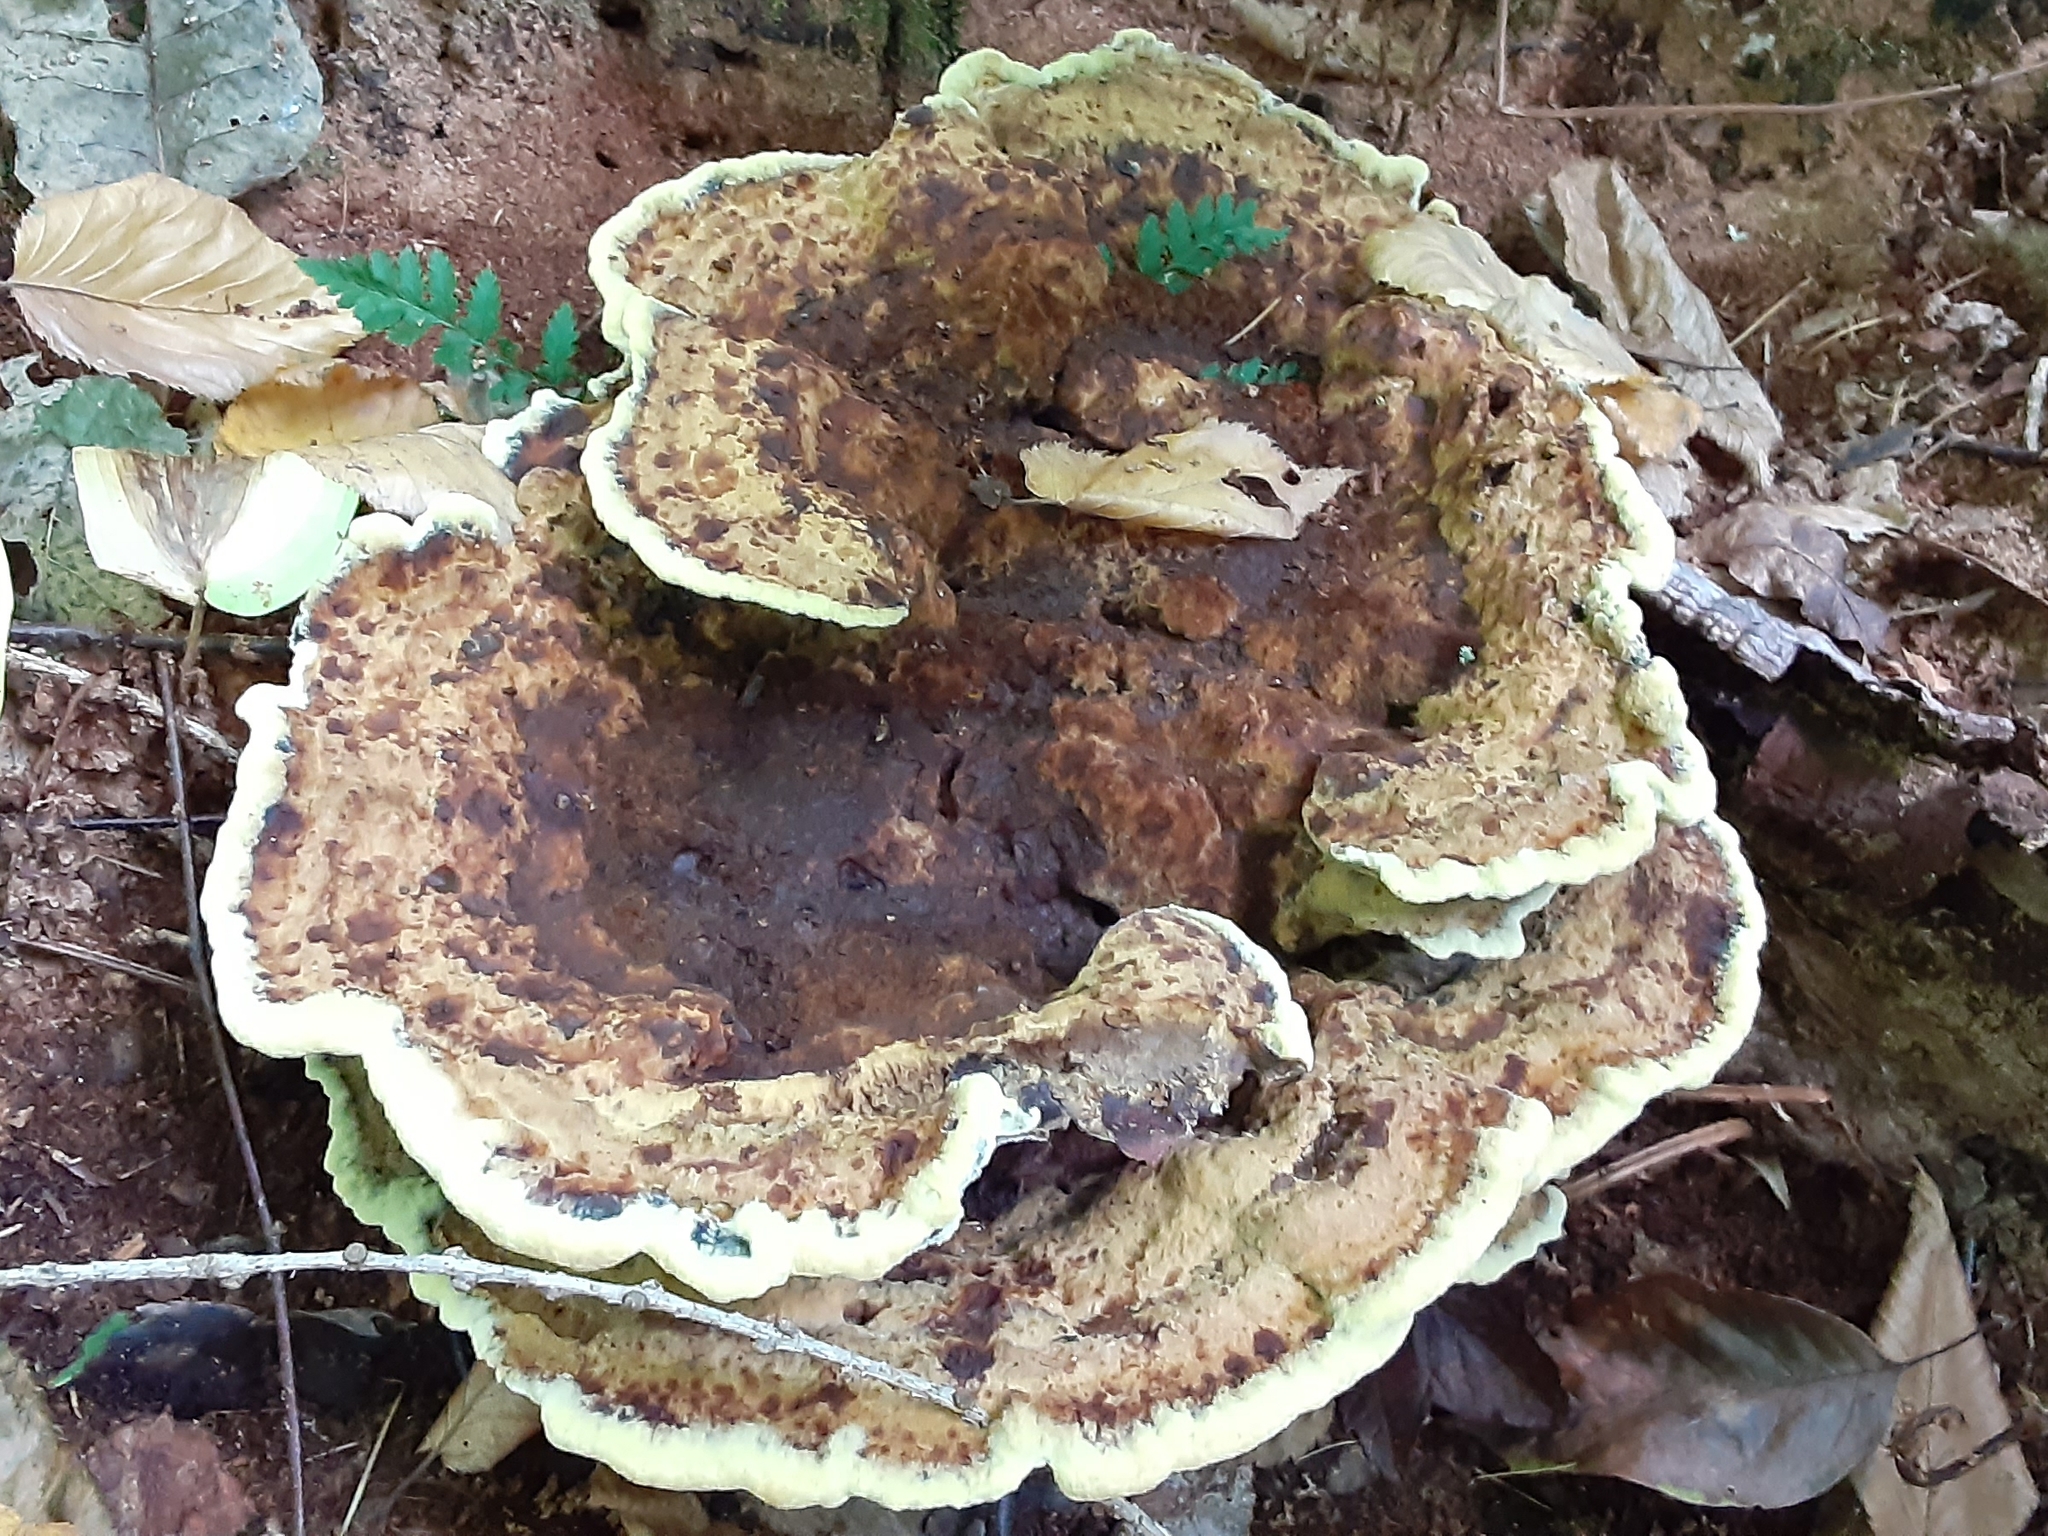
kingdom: Fungi
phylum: Basidiomycota
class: Agaricomycetes
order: Polyporales
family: Laetiporaceae
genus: Phaeolus
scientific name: Phaeolus schweinitzii
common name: Dyer's mazegill
